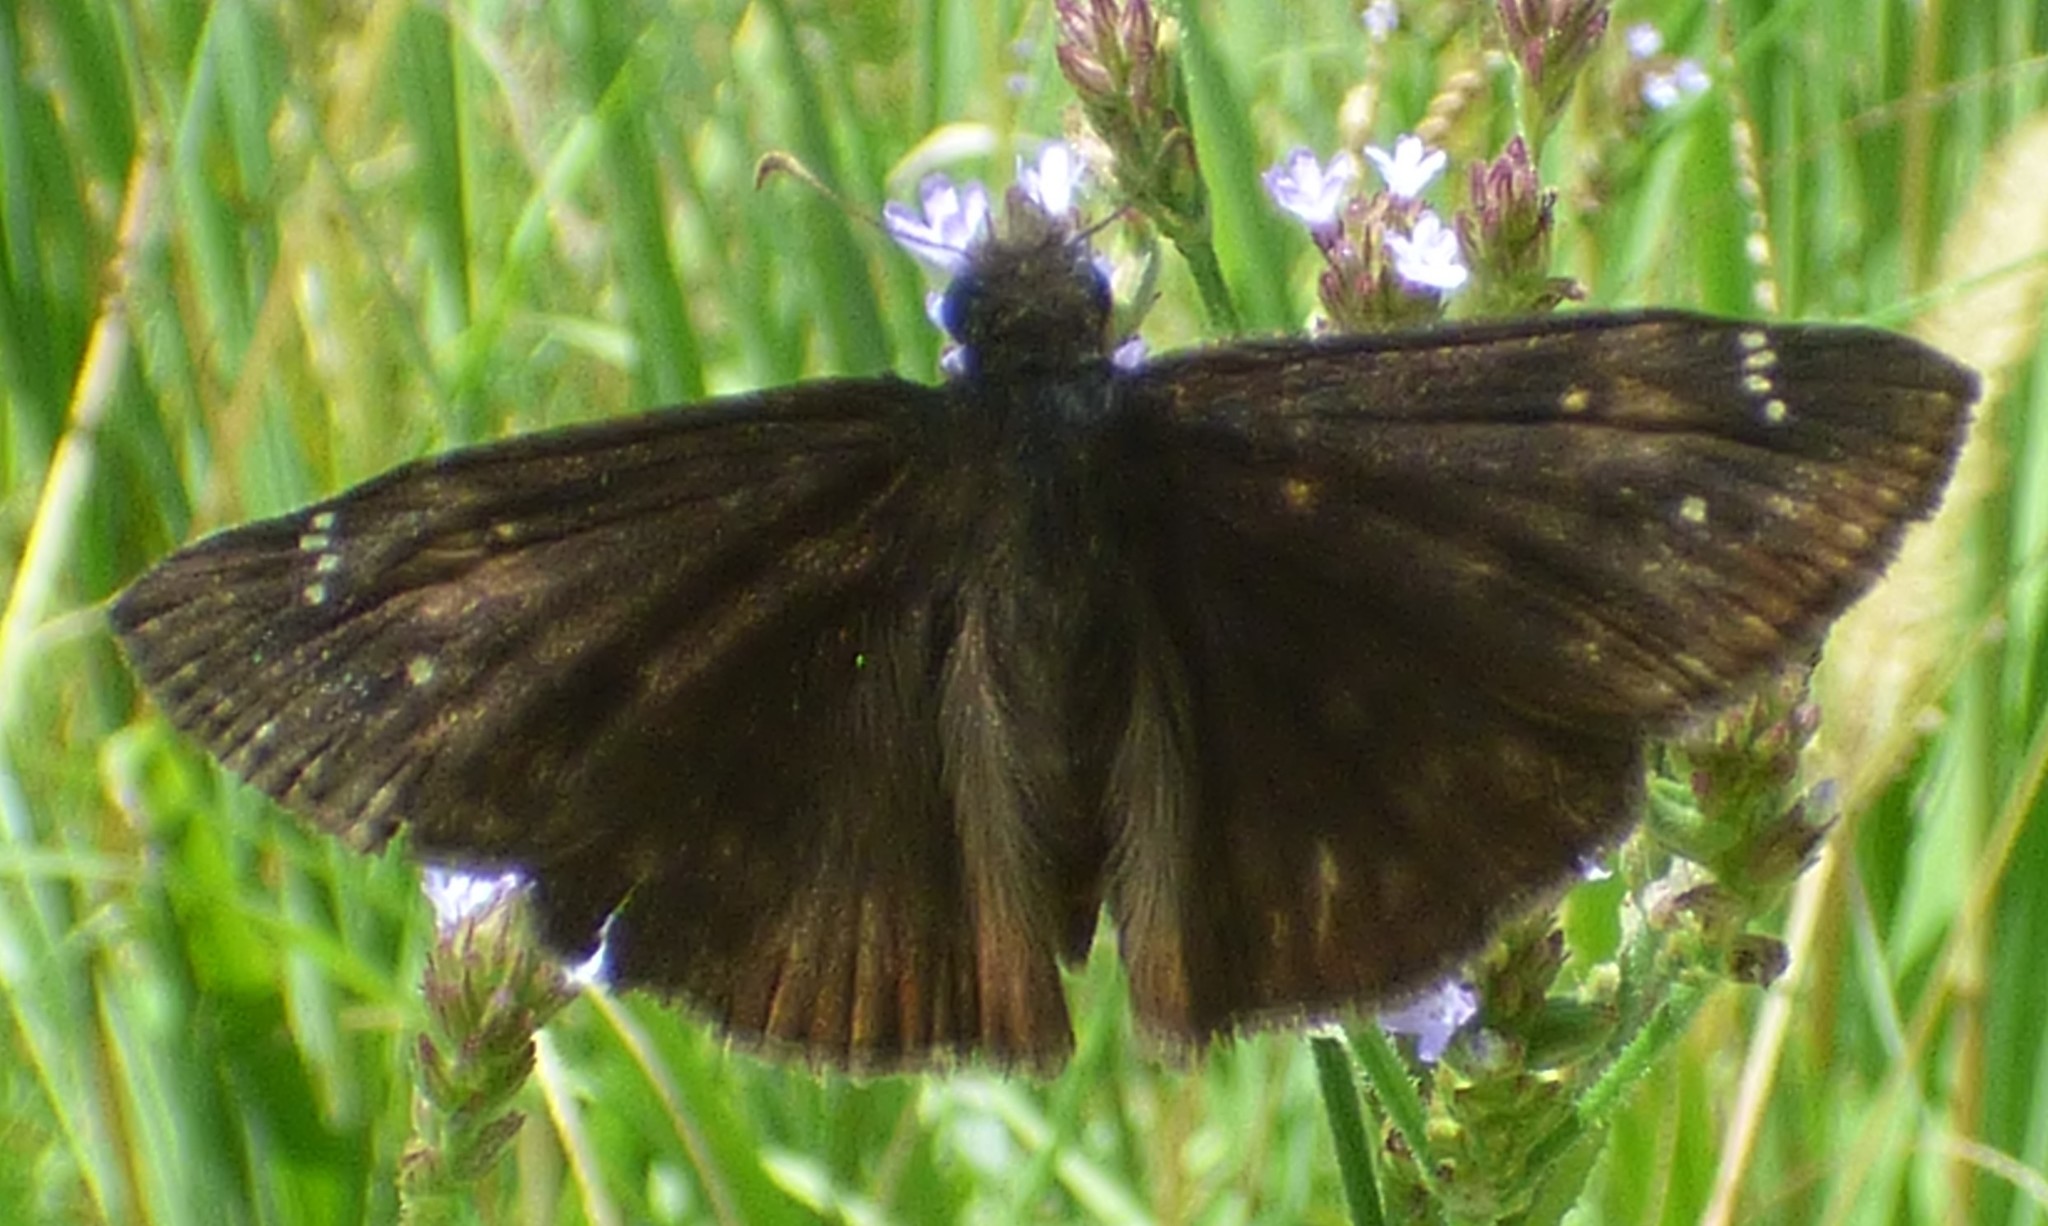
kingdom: Animalia
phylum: Arthropoda
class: Insecta
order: Lepidoptera
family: Hesperiidae
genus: Erynnis
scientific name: Erynnis zarucco
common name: Zarucco duskywing
